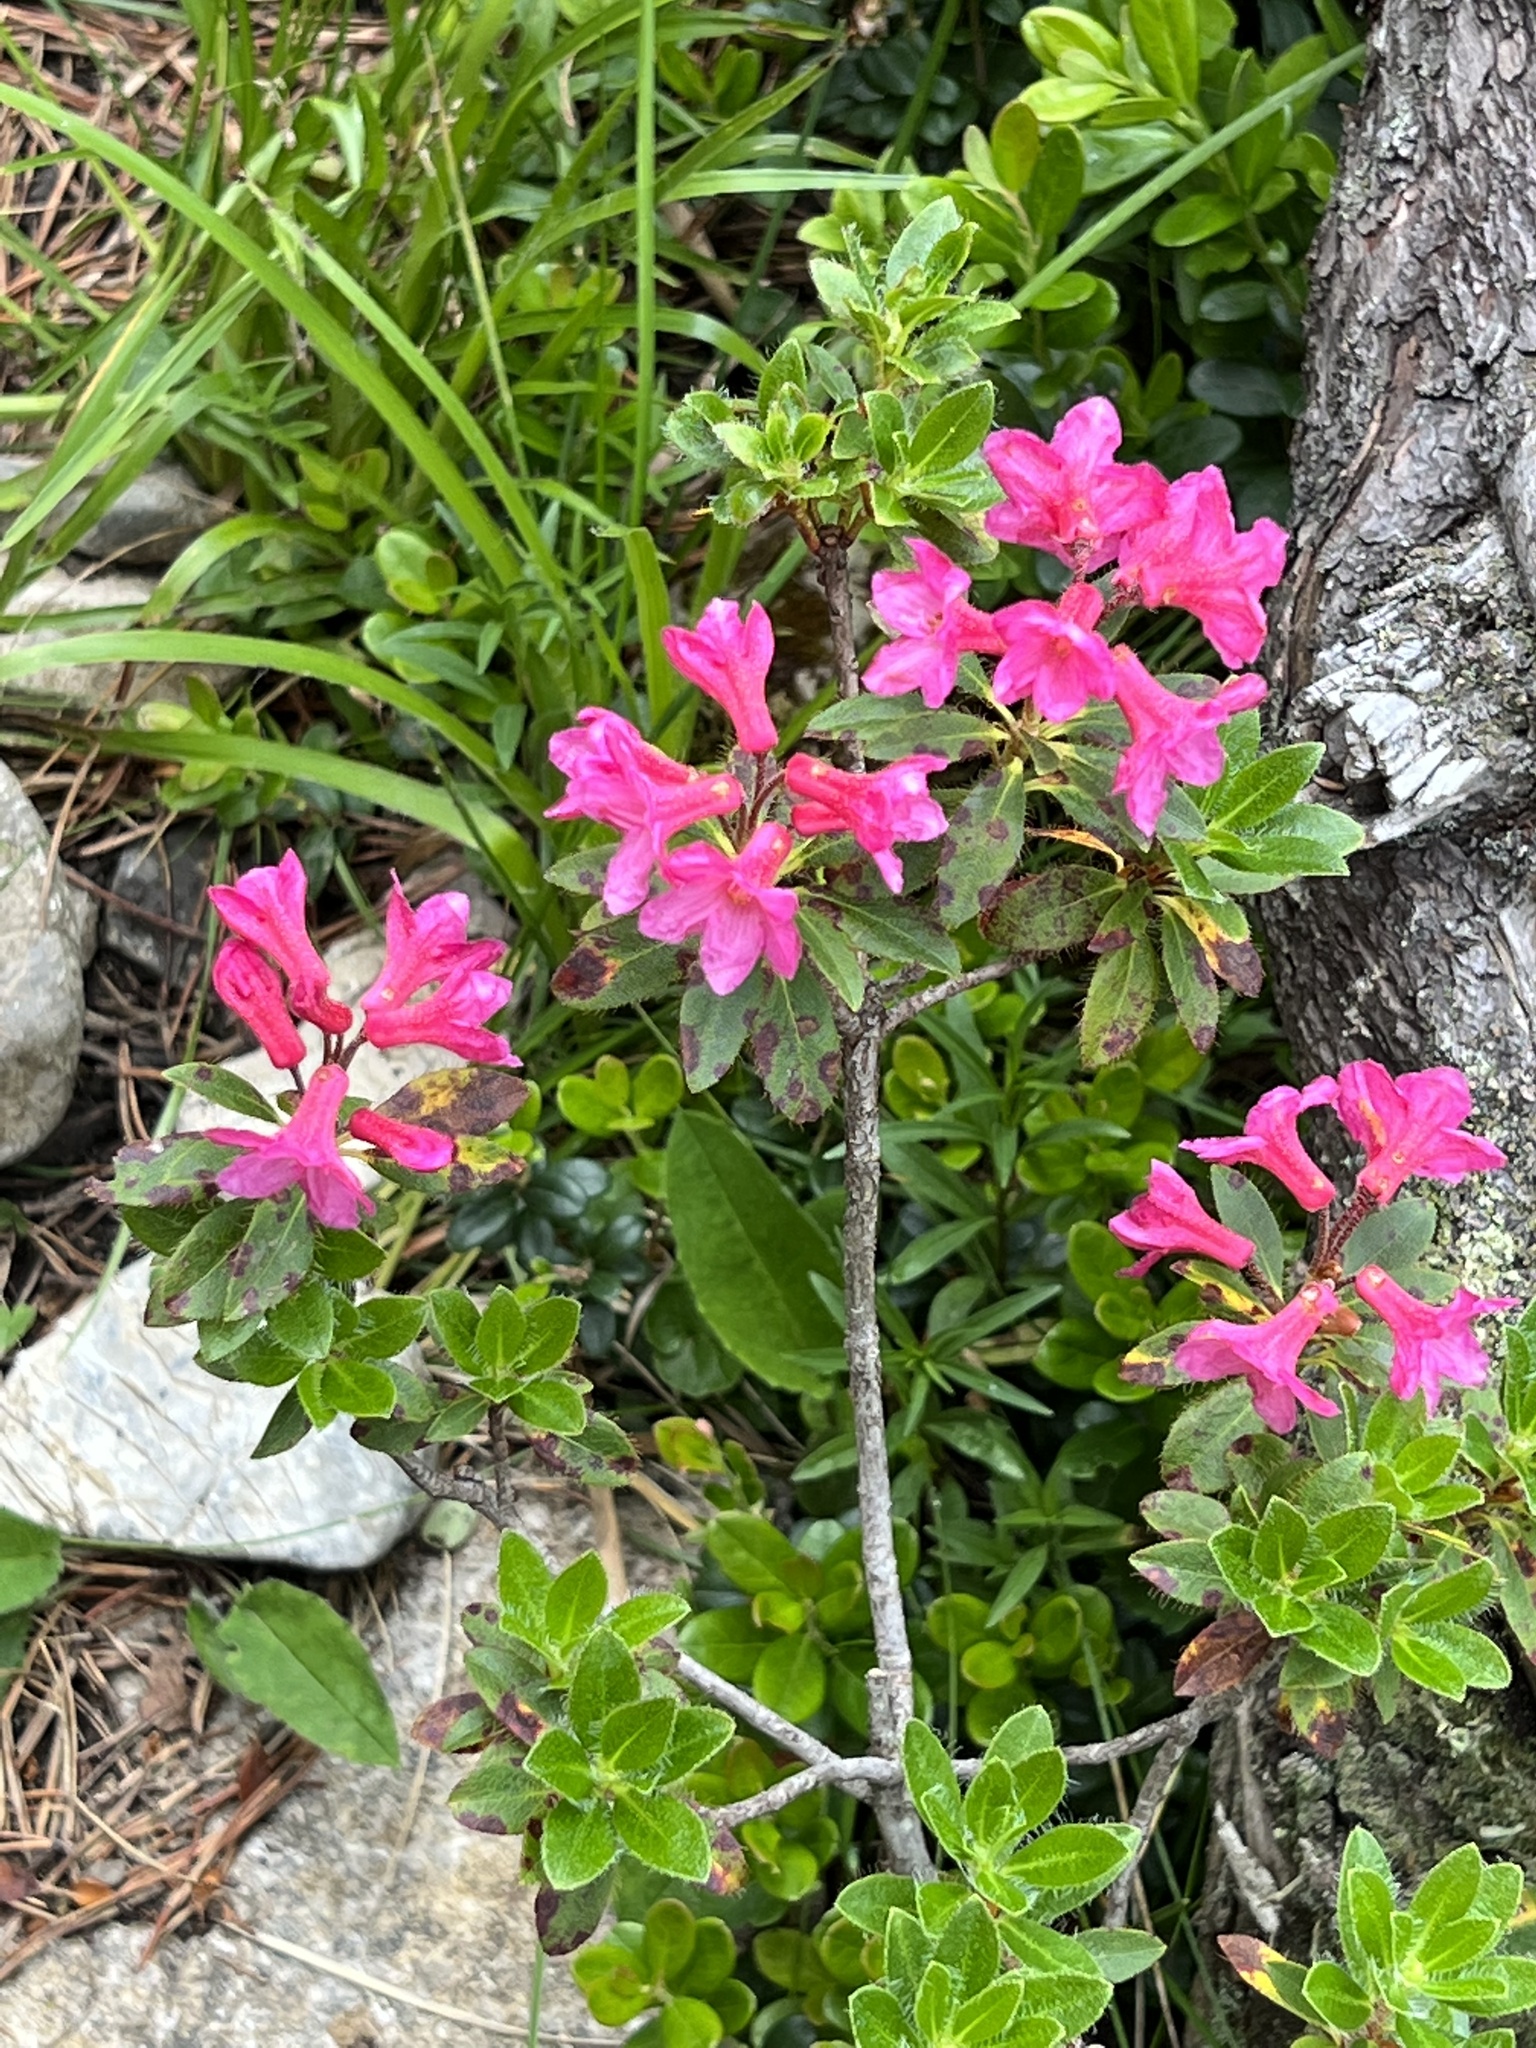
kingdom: Plantae
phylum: Tracheophyta
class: Magnoliopsida
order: Ericales
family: Ericaceae
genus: Rhododendron
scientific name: Rhododendron hirsutum
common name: Hairy alpenrose
